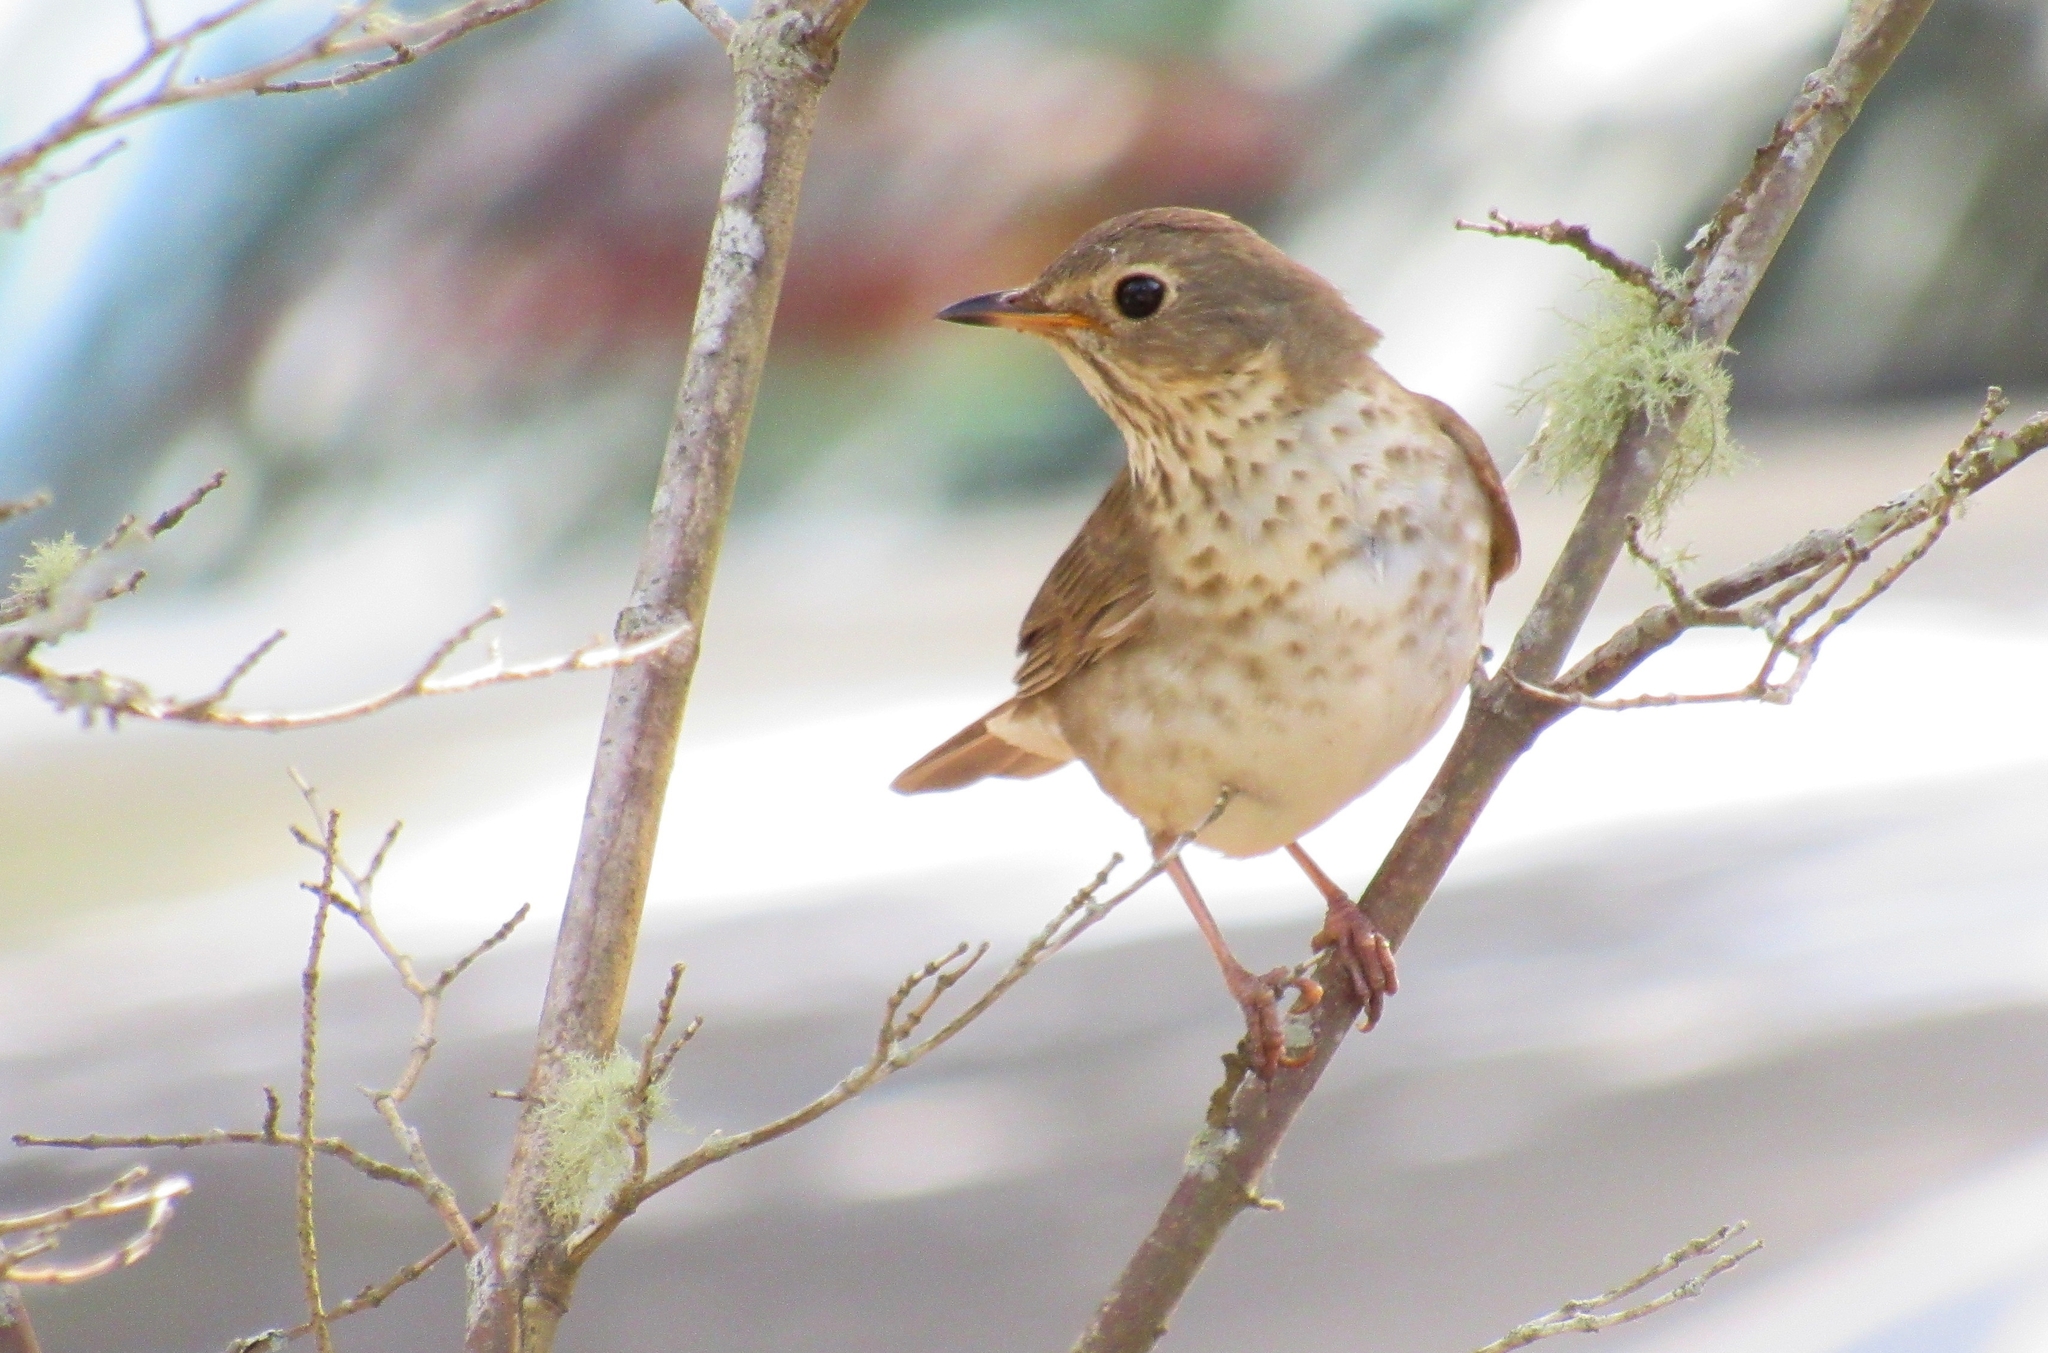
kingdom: Animalia
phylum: Chordata
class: Aves
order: Passeriformes
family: Turdidae
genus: Catharus
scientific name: Catharus ustulatus
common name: Swainson's thrush
